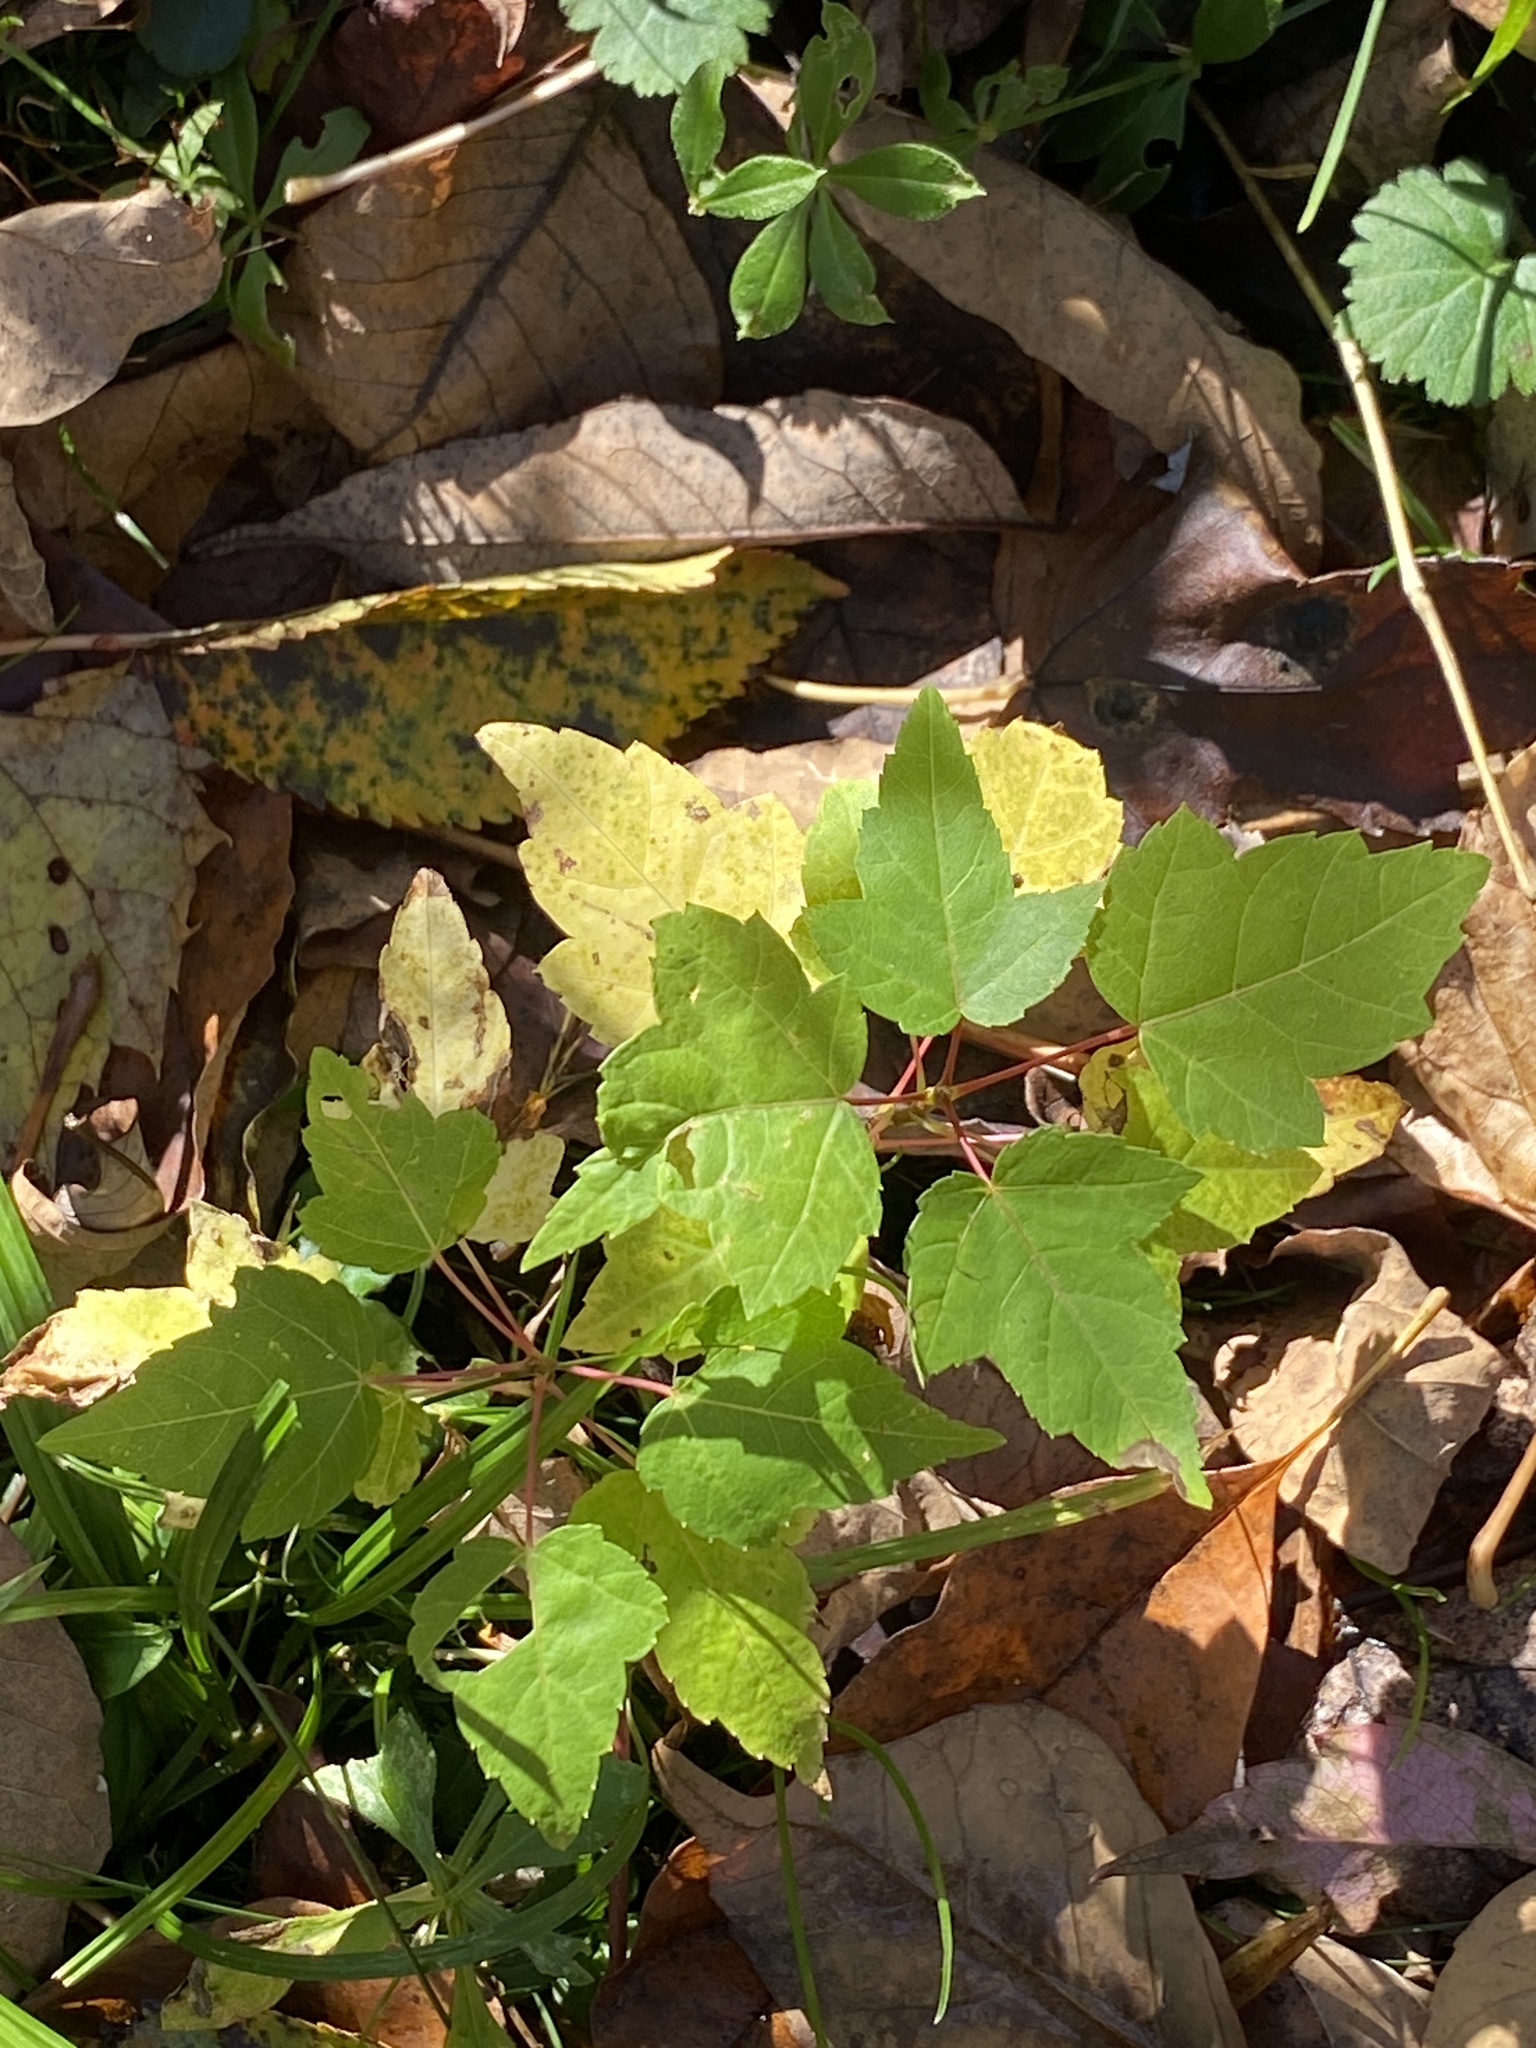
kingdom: Plantae
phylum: Tracheophyta
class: Magnoliopsida
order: Sapindales
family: Sapindaceae
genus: Acer
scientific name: Acer rubrum
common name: Red maple
